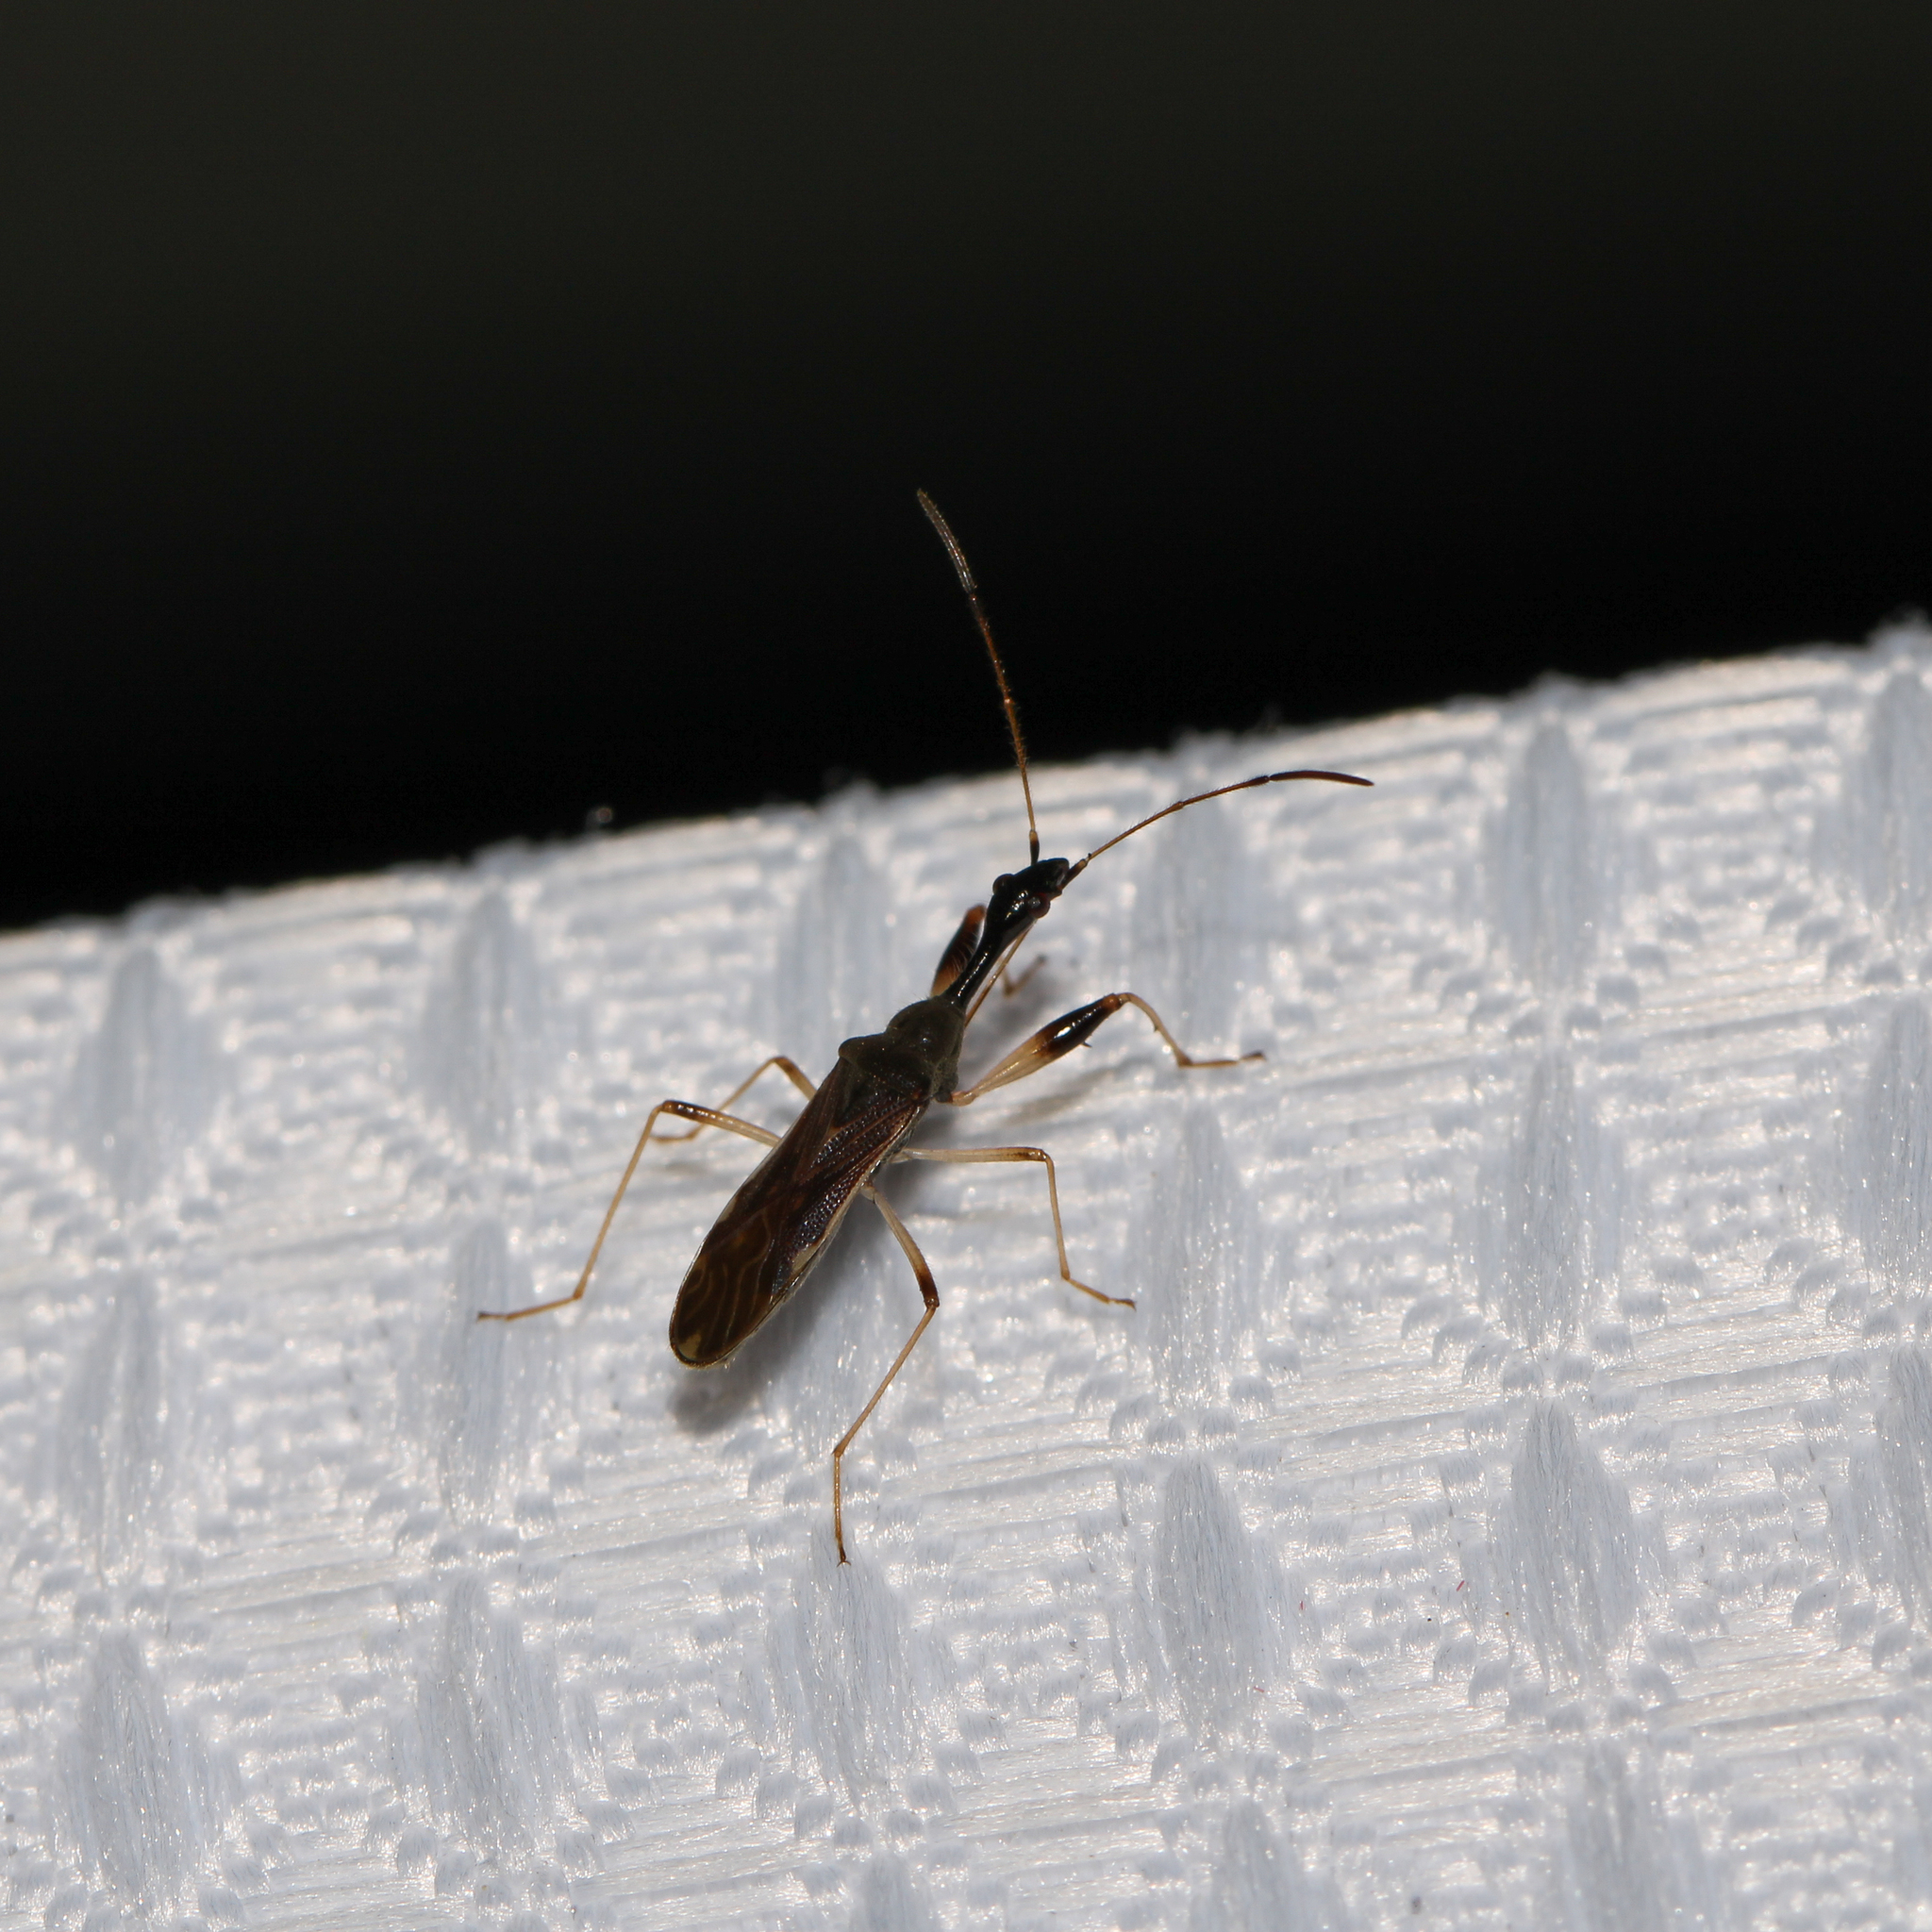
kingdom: Animalia
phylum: Arthropoda
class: Insecta
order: Hemiptera
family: Rhyparochromidae
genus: Myodocha
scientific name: Myodocha serripes
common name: Long-necked seed bug
